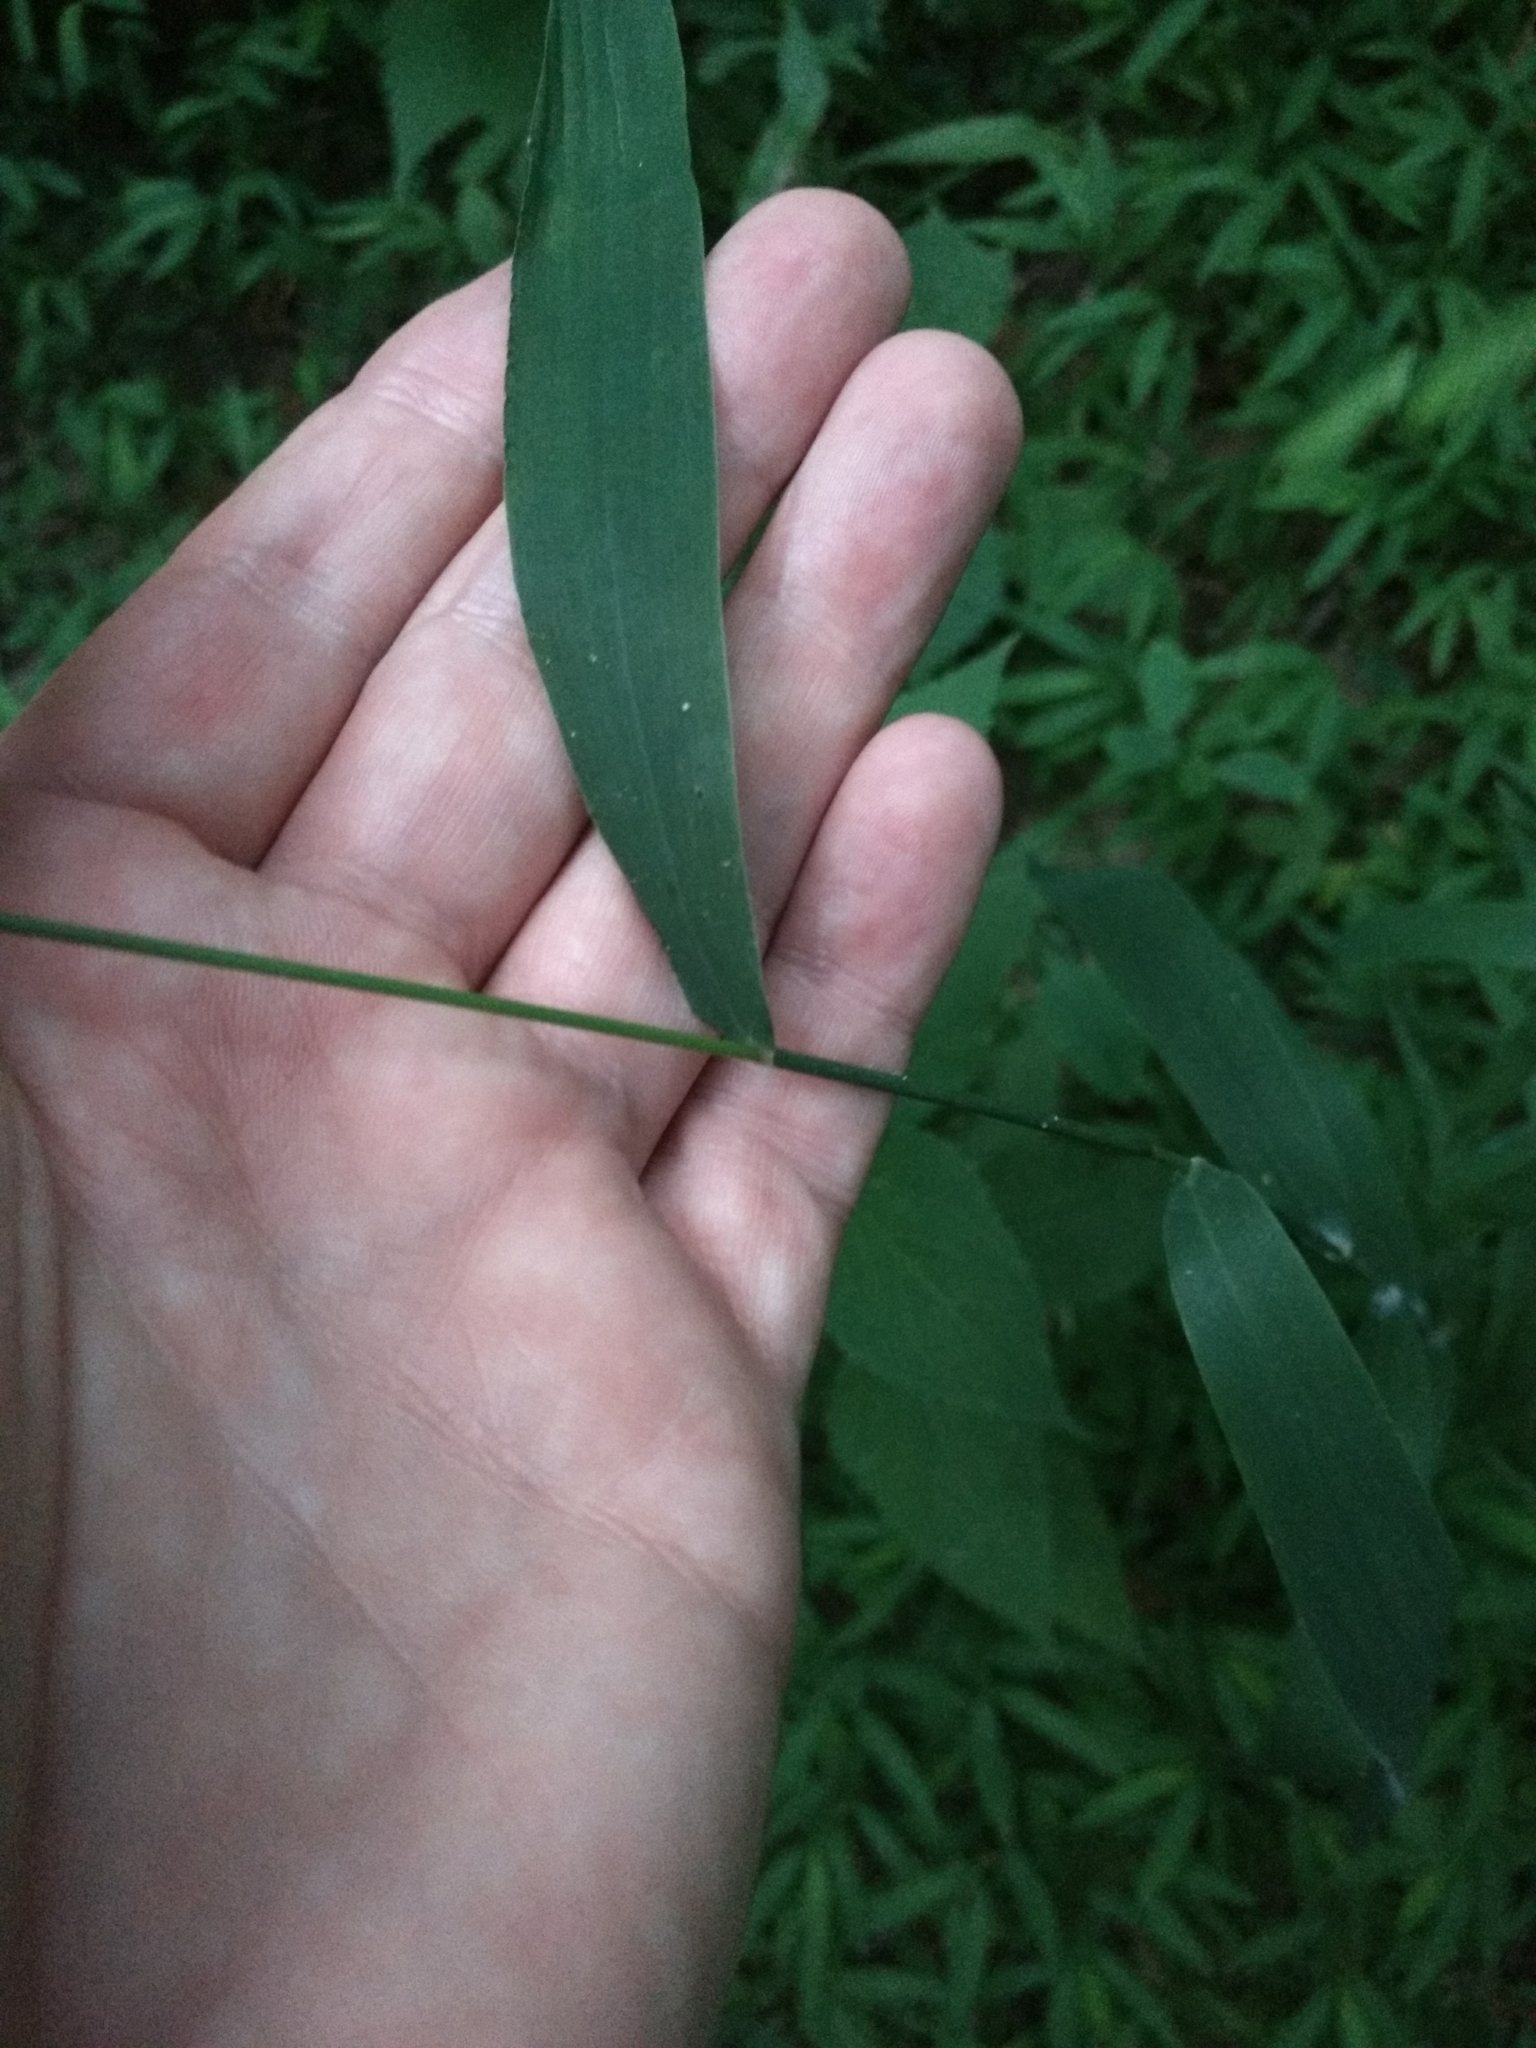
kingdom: Plantae
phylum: Tracheophyta
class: Liliopsida
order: Poales
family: Poaceae
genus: Chasmanthium
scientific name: Chasmanthium latifolium
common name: Broad-leaved chasmanthium
